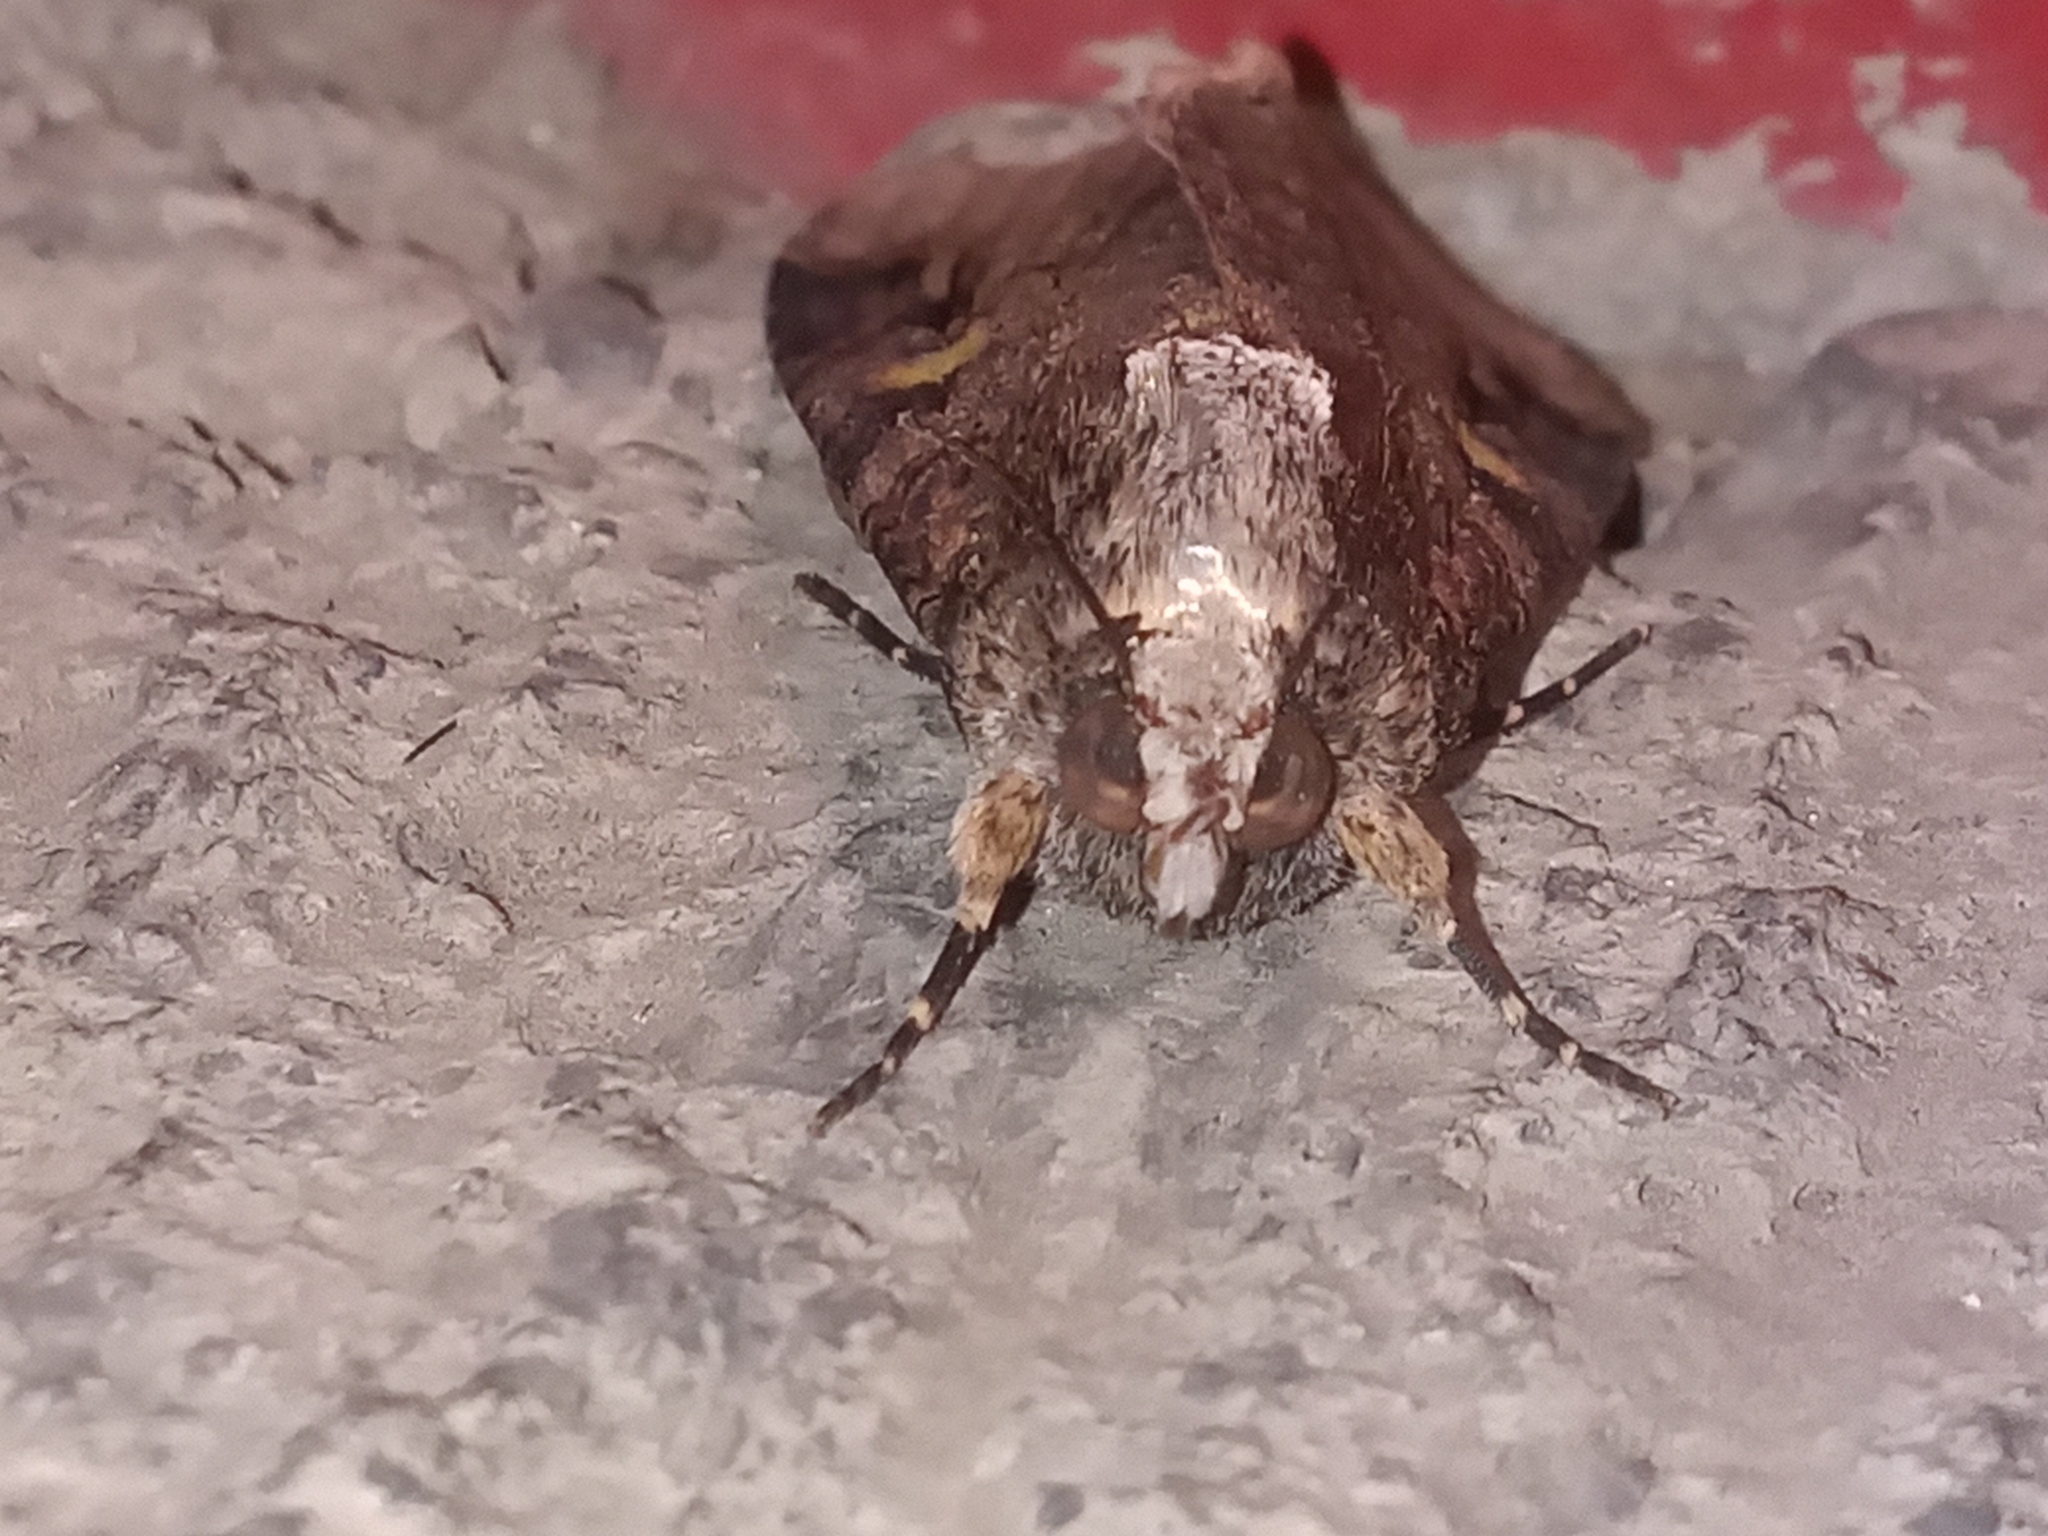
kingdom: Animalia
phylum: Arthropoda
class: Insecta
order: Lepidoptera
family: Erebidae
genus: Melipotis
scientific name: Melipotis famelica
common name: Famelica melipotis moth
